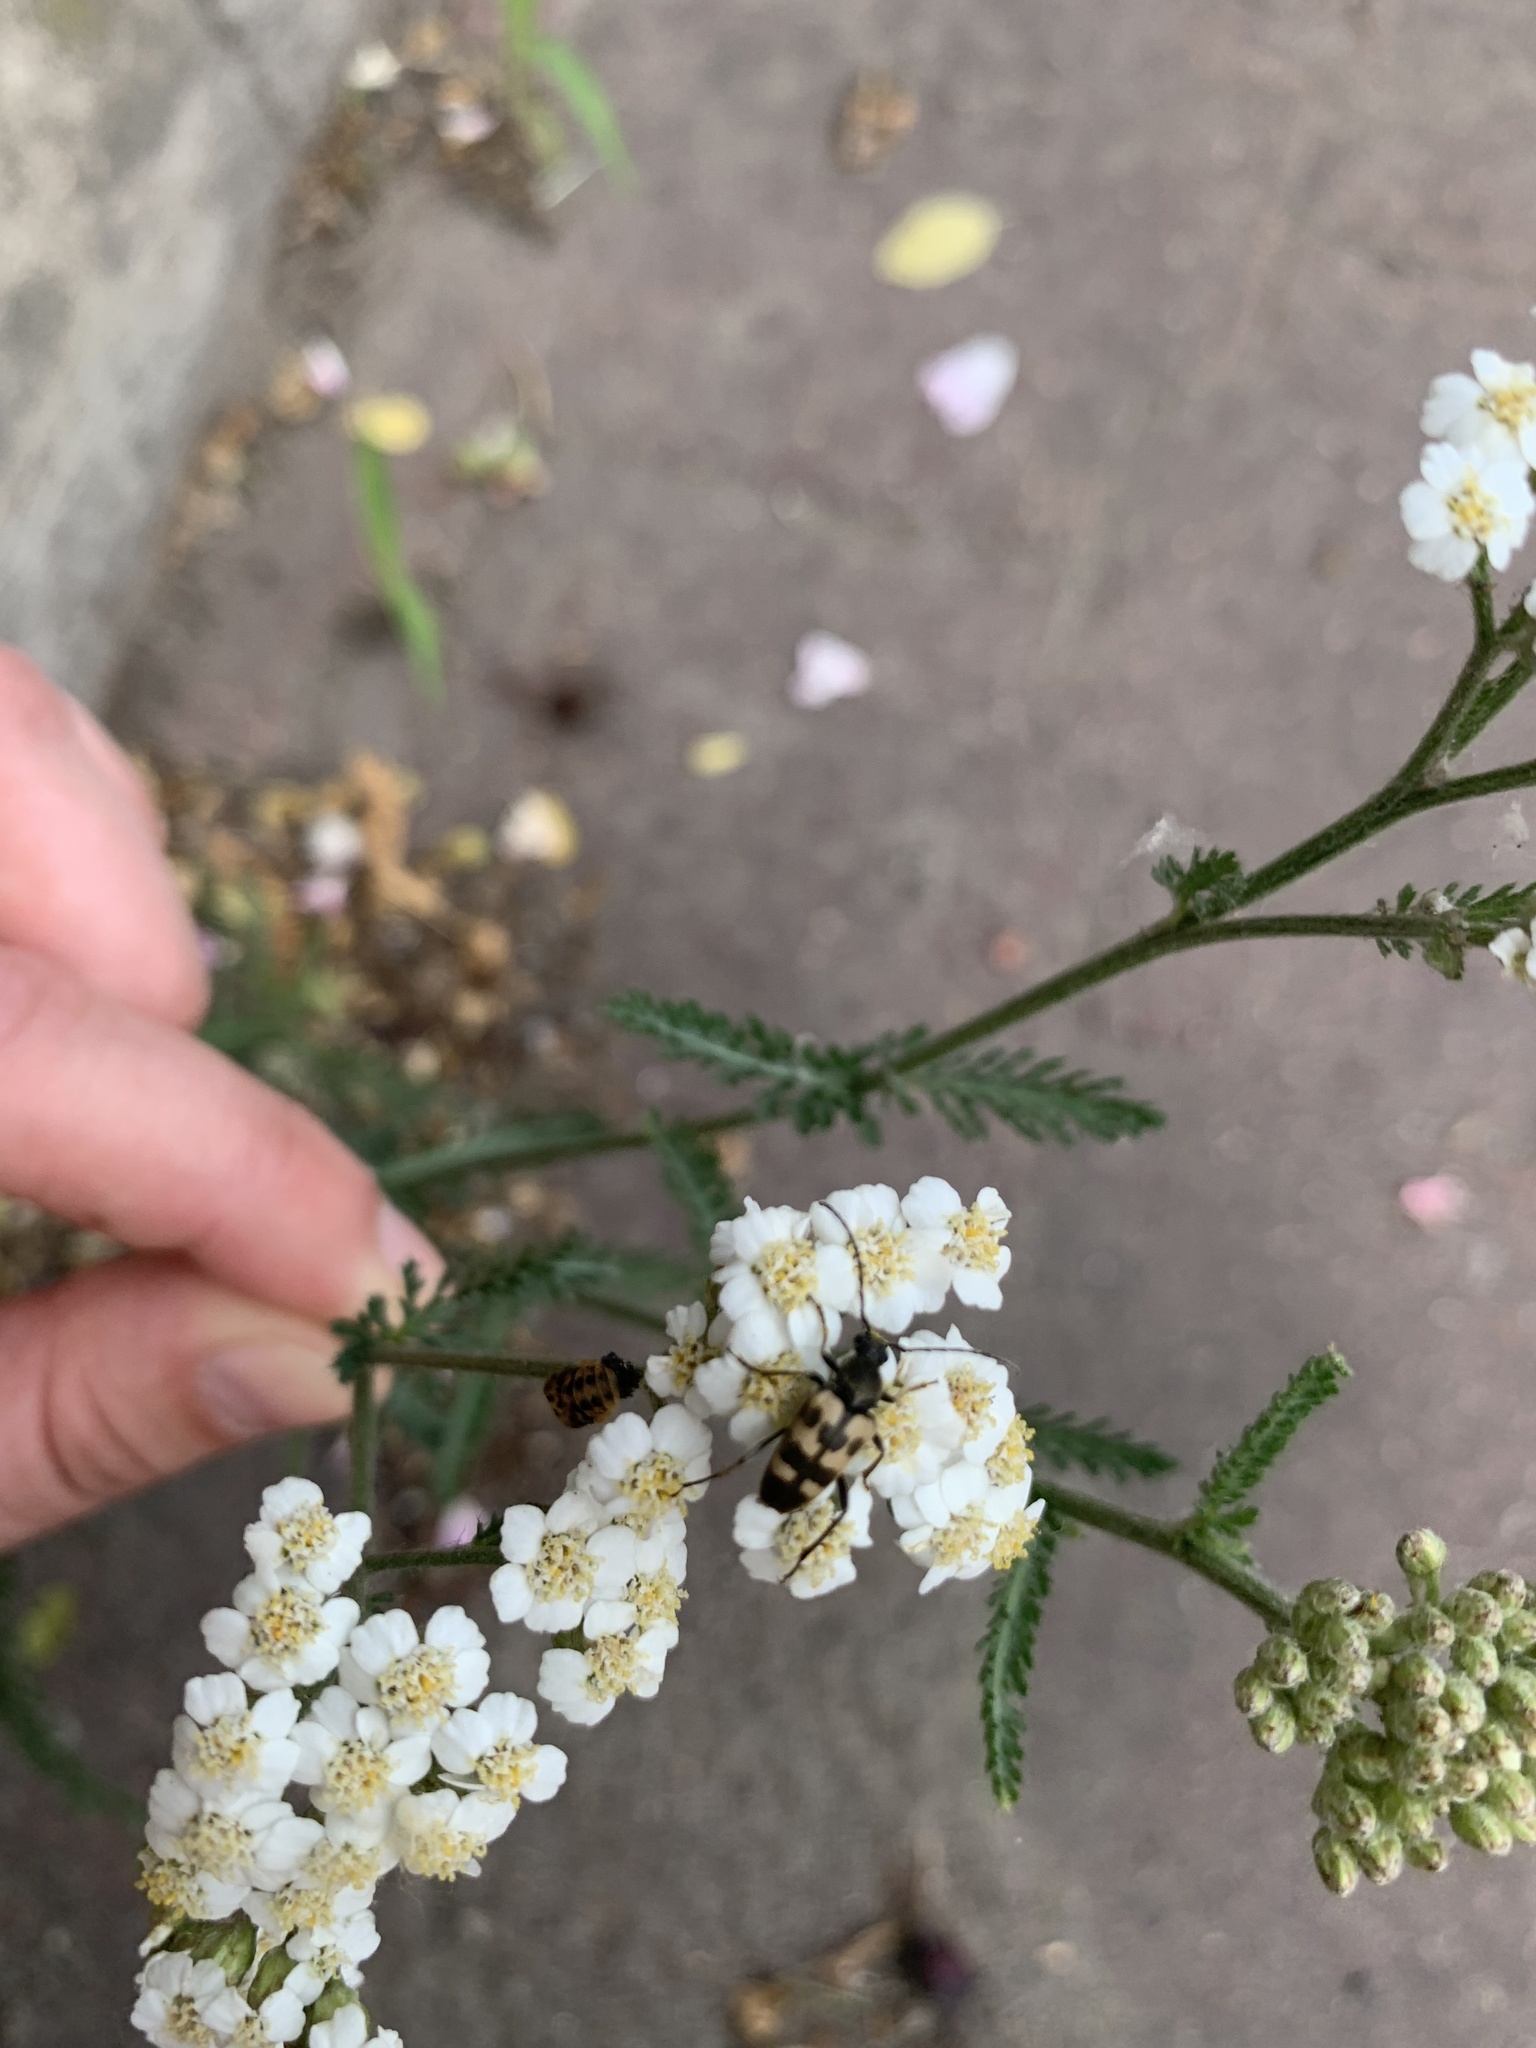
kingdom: Animalia
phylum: Arthropoda
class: Insecta
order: Coleoptera
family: Cerambycidae
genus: Pachytodes
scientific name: Pachytodes
